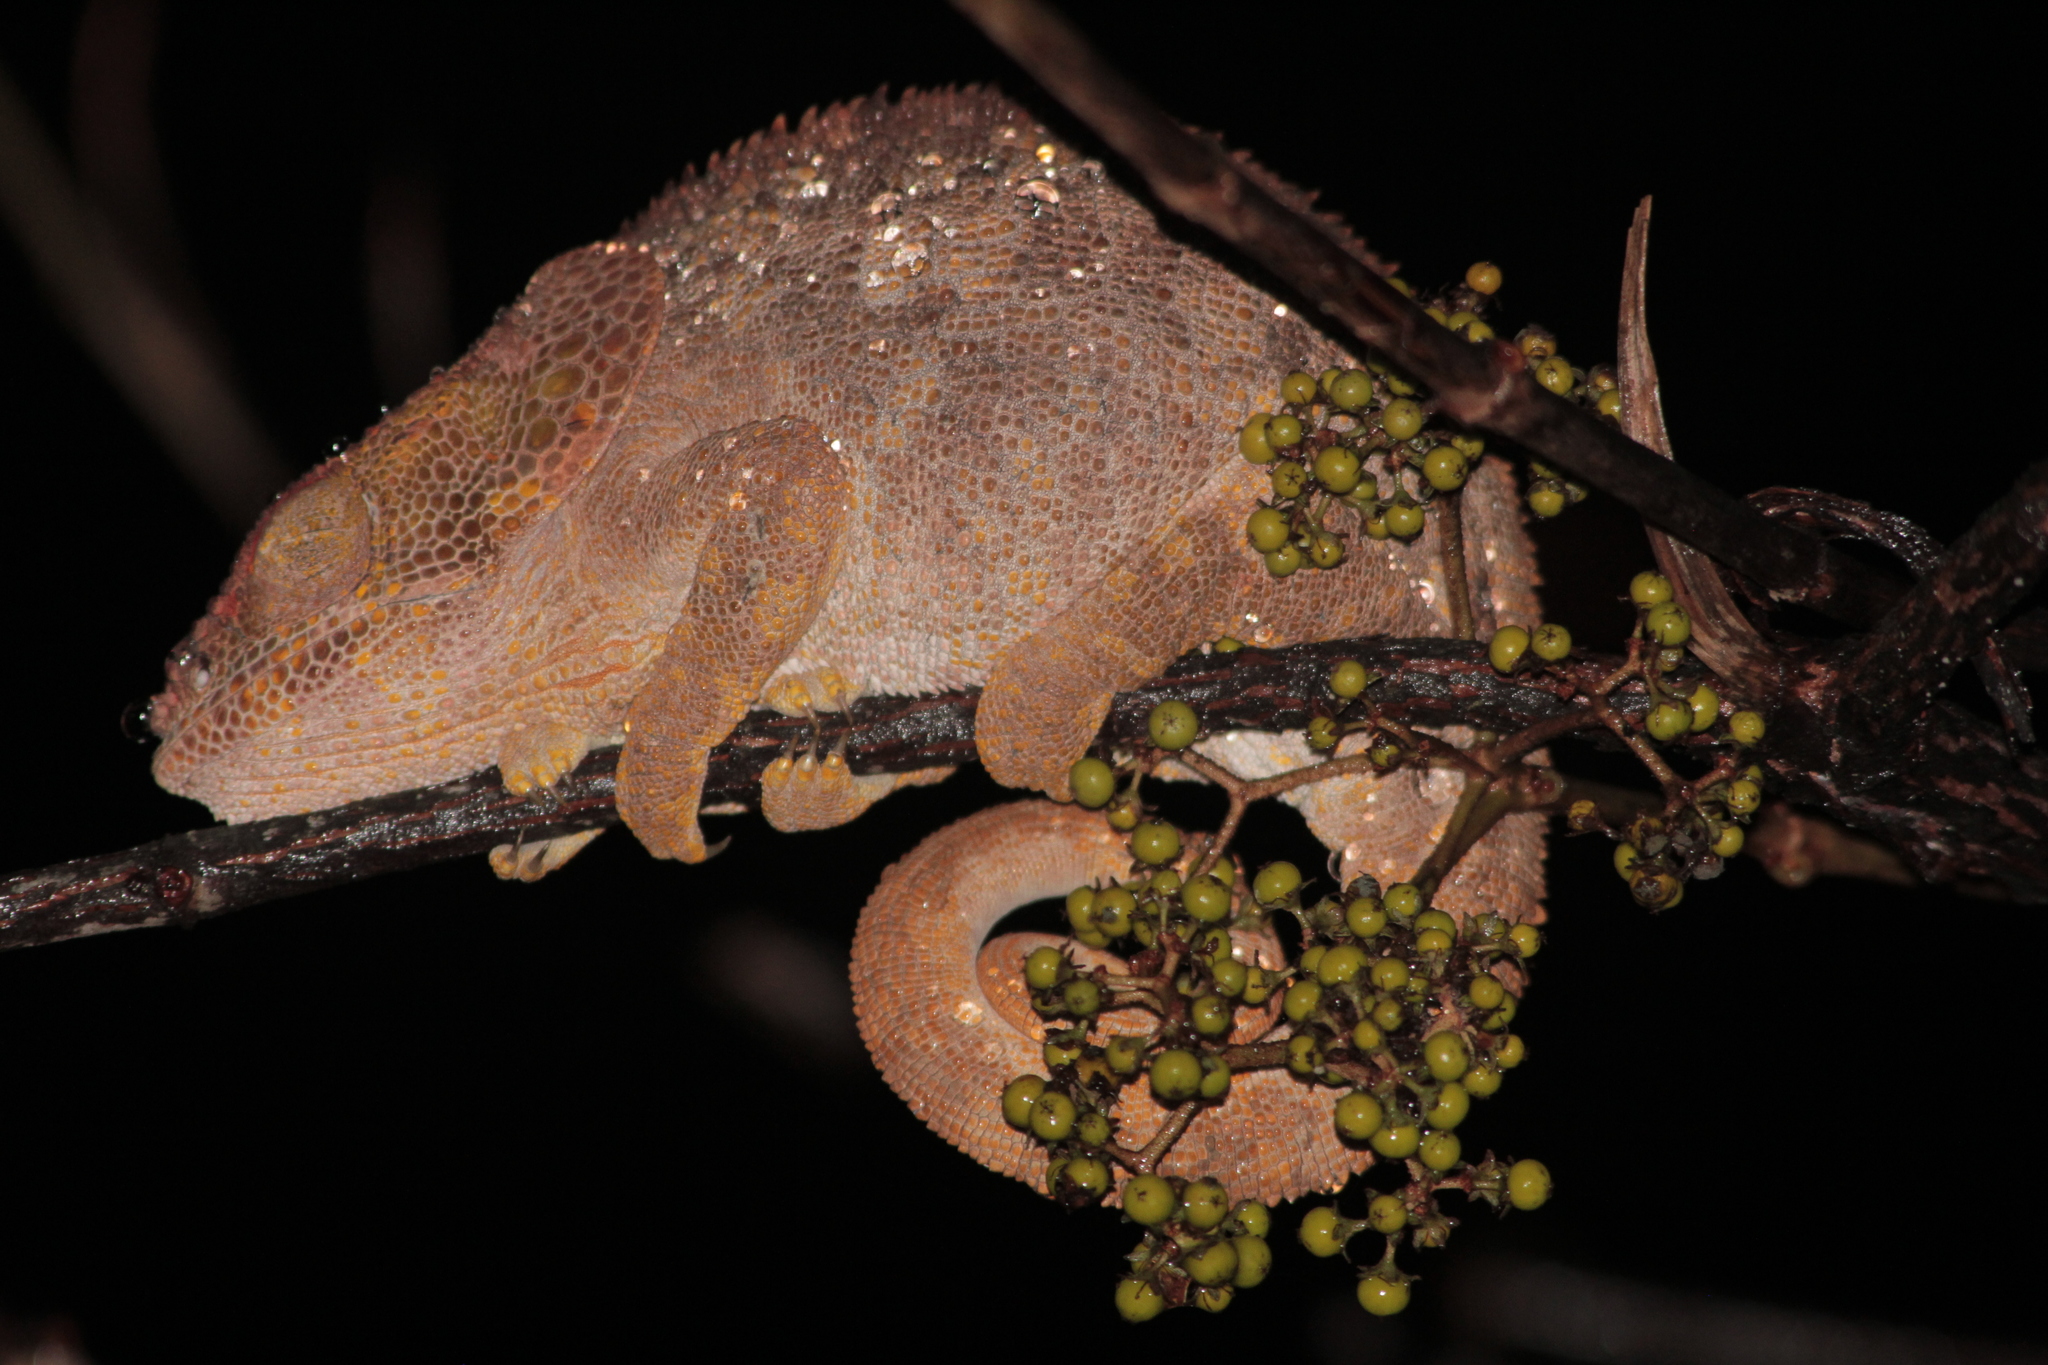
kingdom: Animalia
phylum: Chordata
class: Squamata
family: Chamaeleonidae
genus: Calumma
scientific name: Calumma brevicorne
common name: Short-horned chameleon
